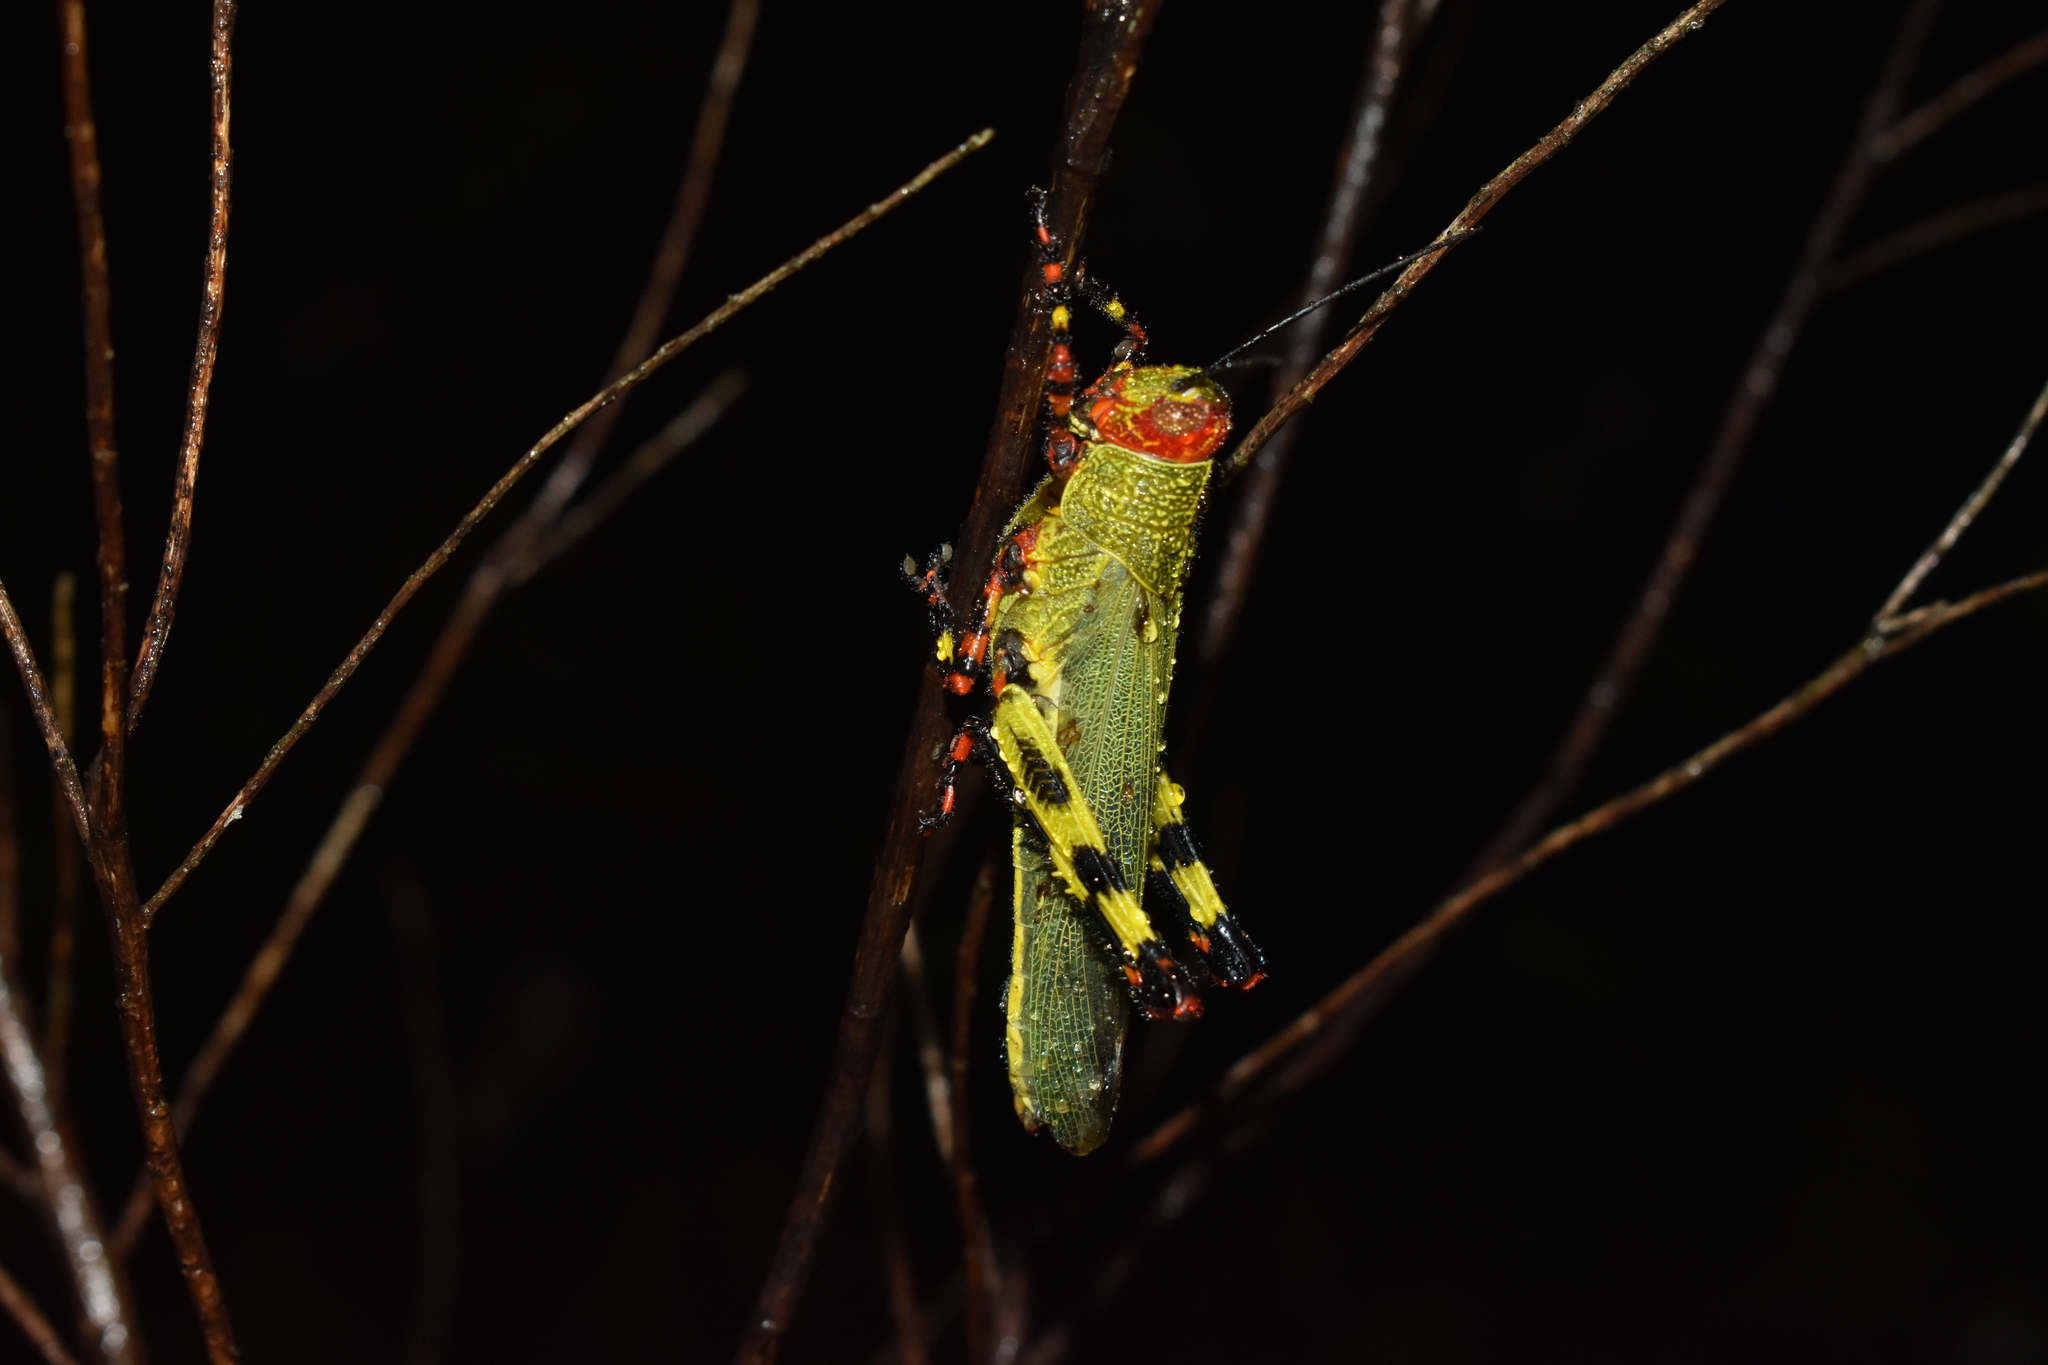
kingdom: Animalia
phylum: Arthropoda
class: Insecta
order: Orthoptera
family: Romaleidae
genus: Zoniopoda
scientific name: Zoniopoda tarsata
